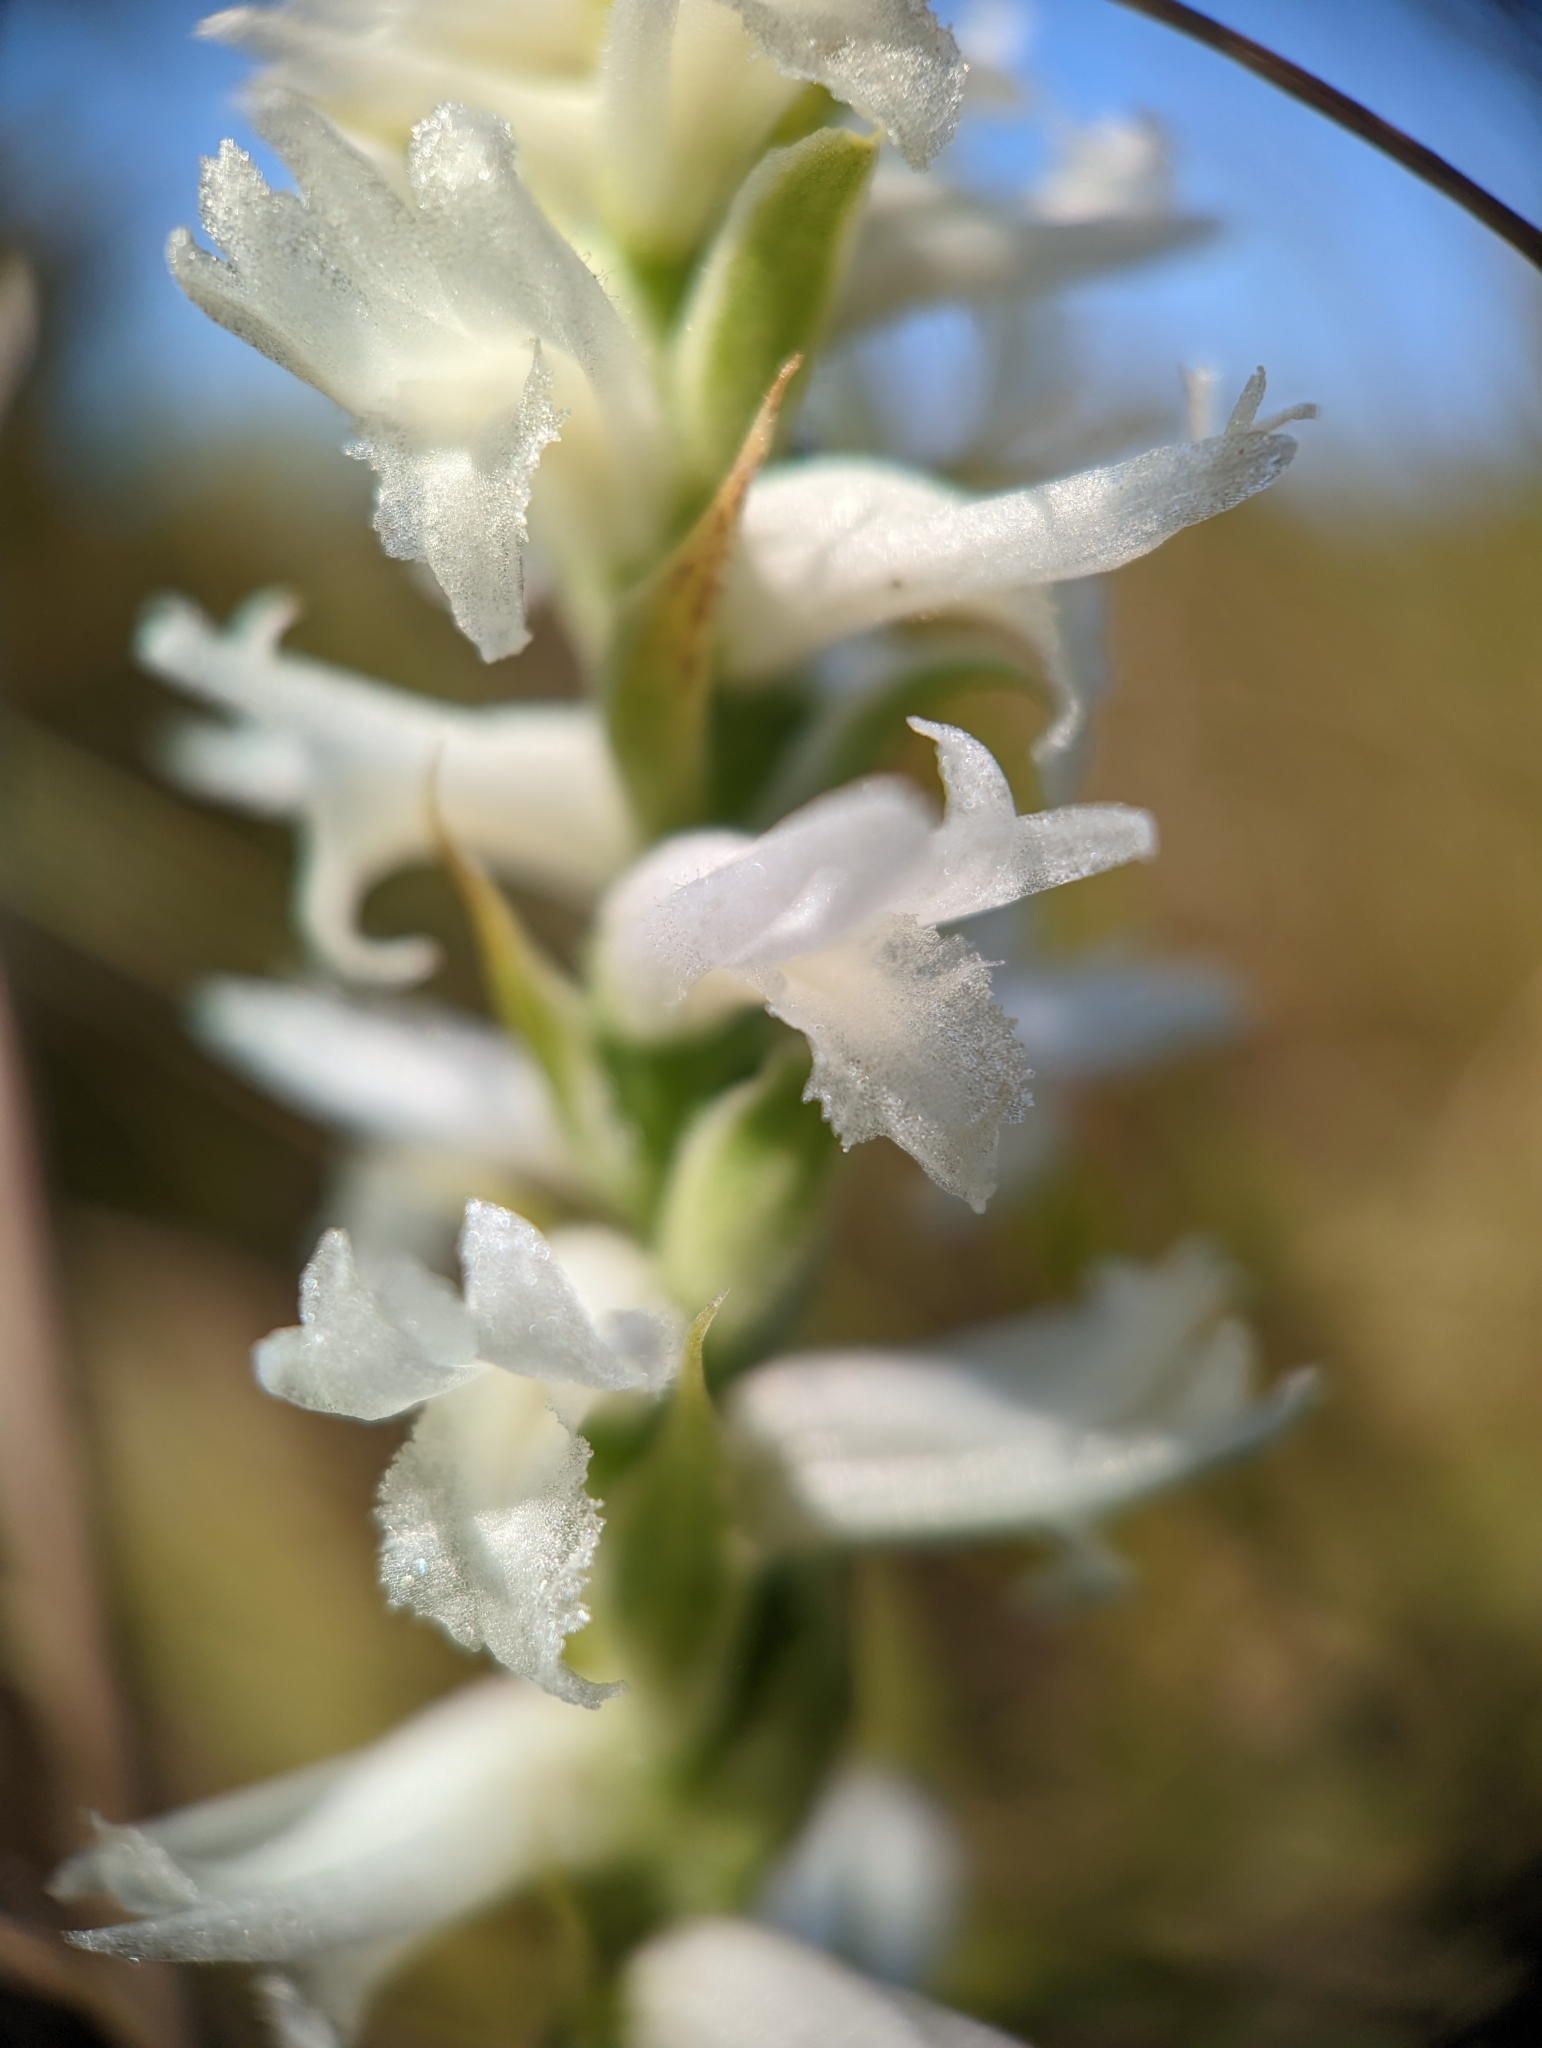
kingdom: Plantae
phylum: Tracheophyta
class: Liliopsida
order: Asparagales
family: Orchidaceae
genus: Spiranthes
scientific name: Spiranthes incurva
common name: Sphinx ladies'-tresses
